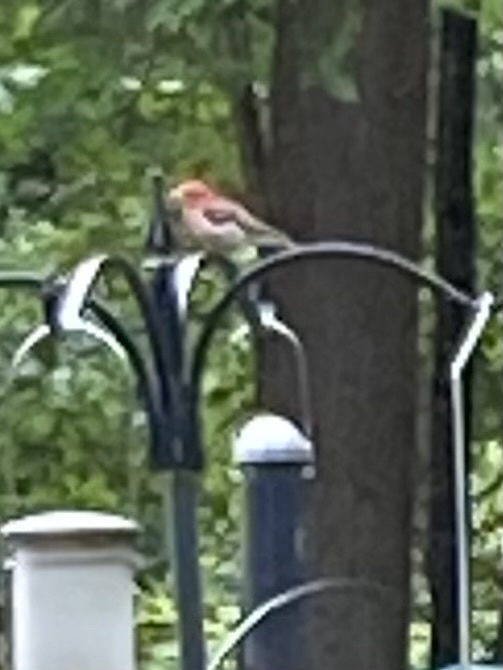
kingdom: Animalia
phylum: Chordata
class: Aves
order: Passeriformes
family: Fringillidae
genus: Haemorhous
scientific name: Haemorhous purpureus
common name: Purple finch
